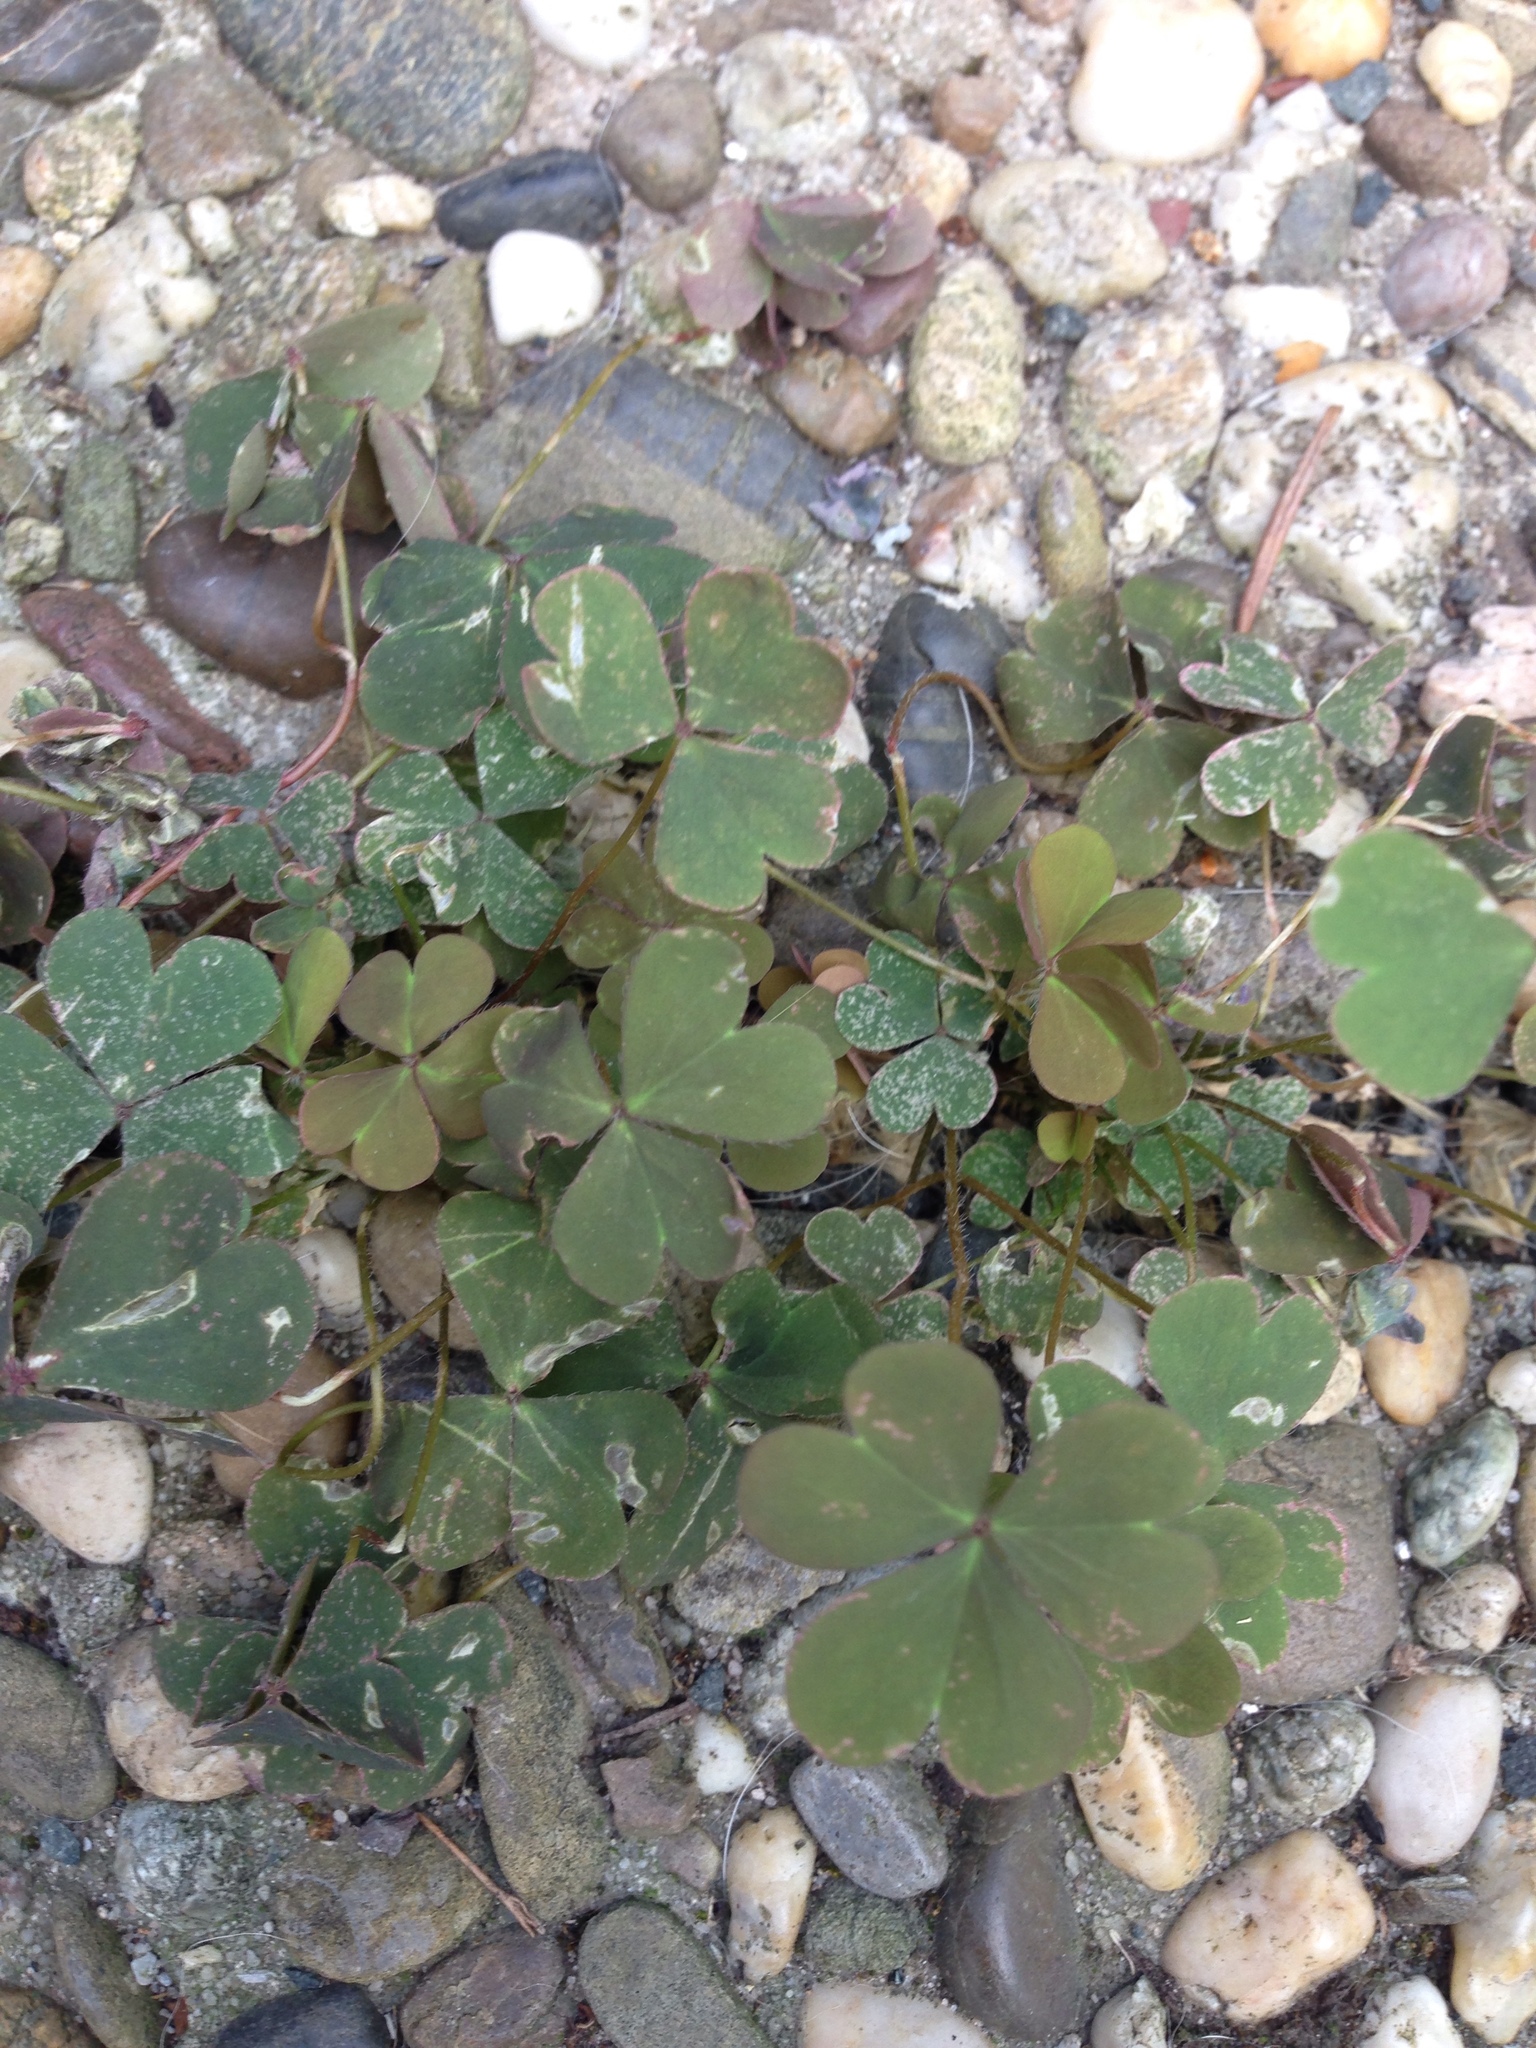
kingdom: Plantae
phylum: Tracheophyta
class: Magnoliopsida
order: Oxalidales
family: Oxalidaceae
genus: Oxalis
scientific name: Oxalis corniculata
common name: Procumbent yellow-sorrel
